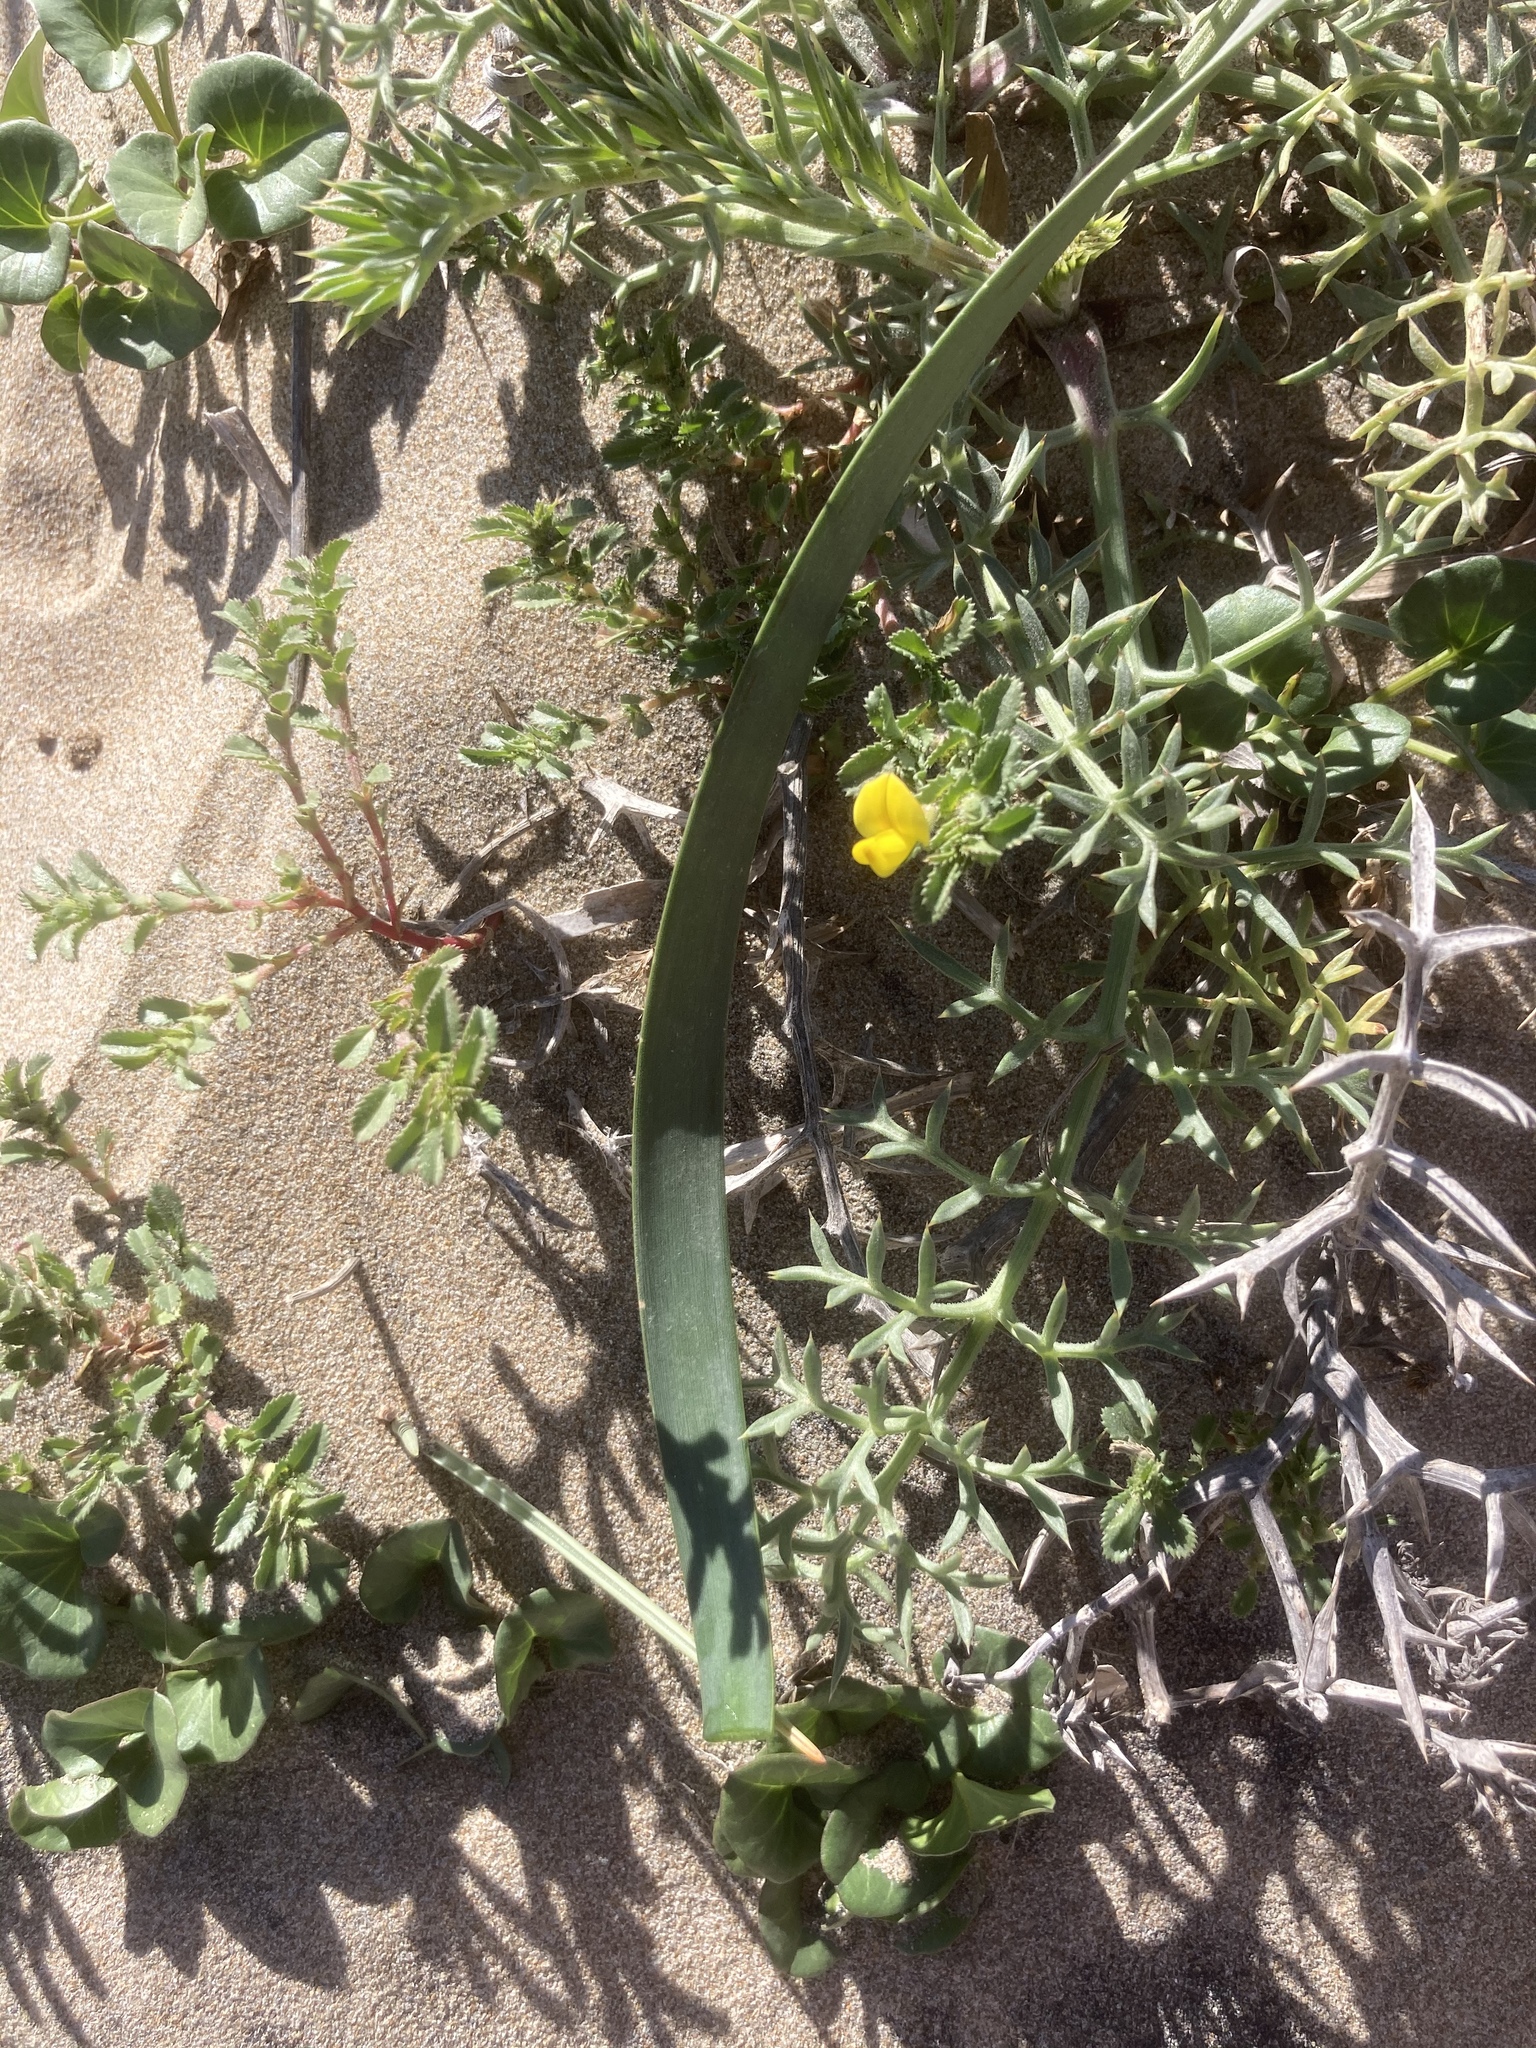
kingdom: Plantae
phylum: Tracheophyta
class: Liliopsida
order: Asparagales
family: Amaryllidaceae
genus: Pancratium
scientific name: Pancratium maritimum
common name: Sea-daffodil
